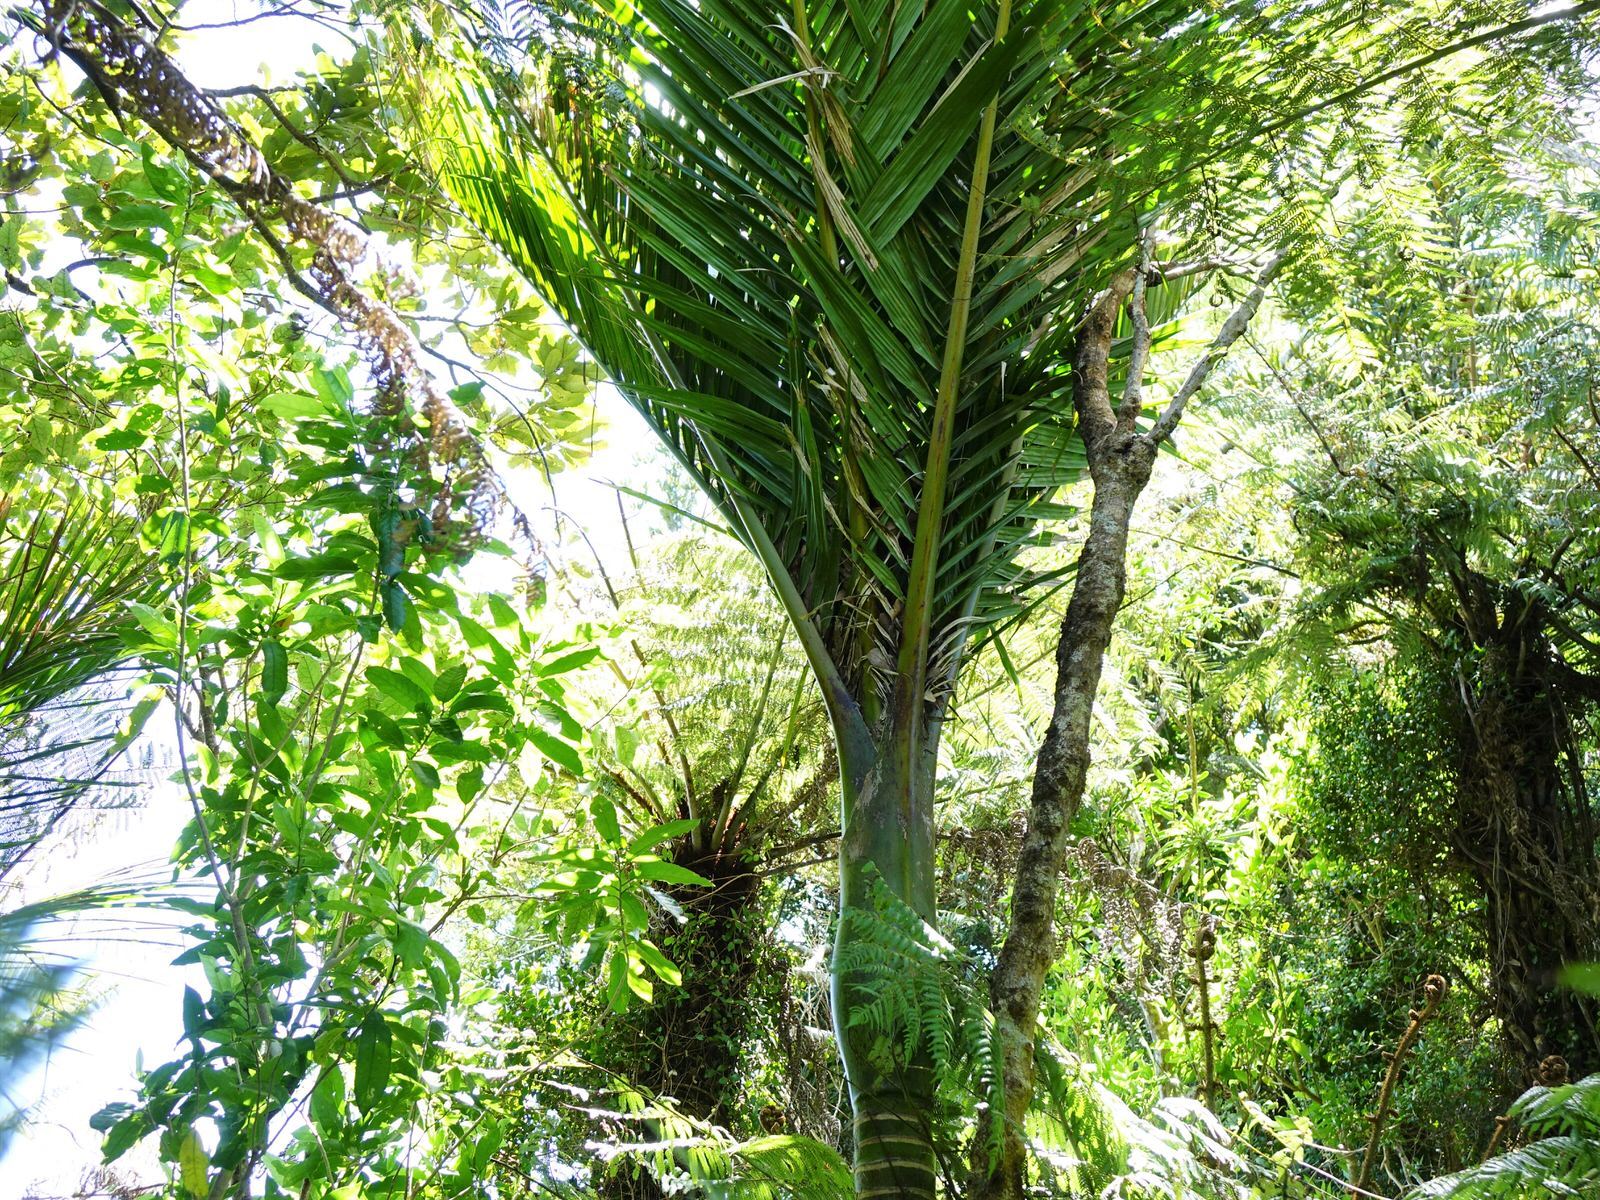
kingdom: Plantae
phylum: Tracheophyta
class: Liliopsida
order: Arecales
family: Arecaceae
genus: Rhopalostylis
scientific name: Rhopalostylis sapida
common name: Feather-duster palm
